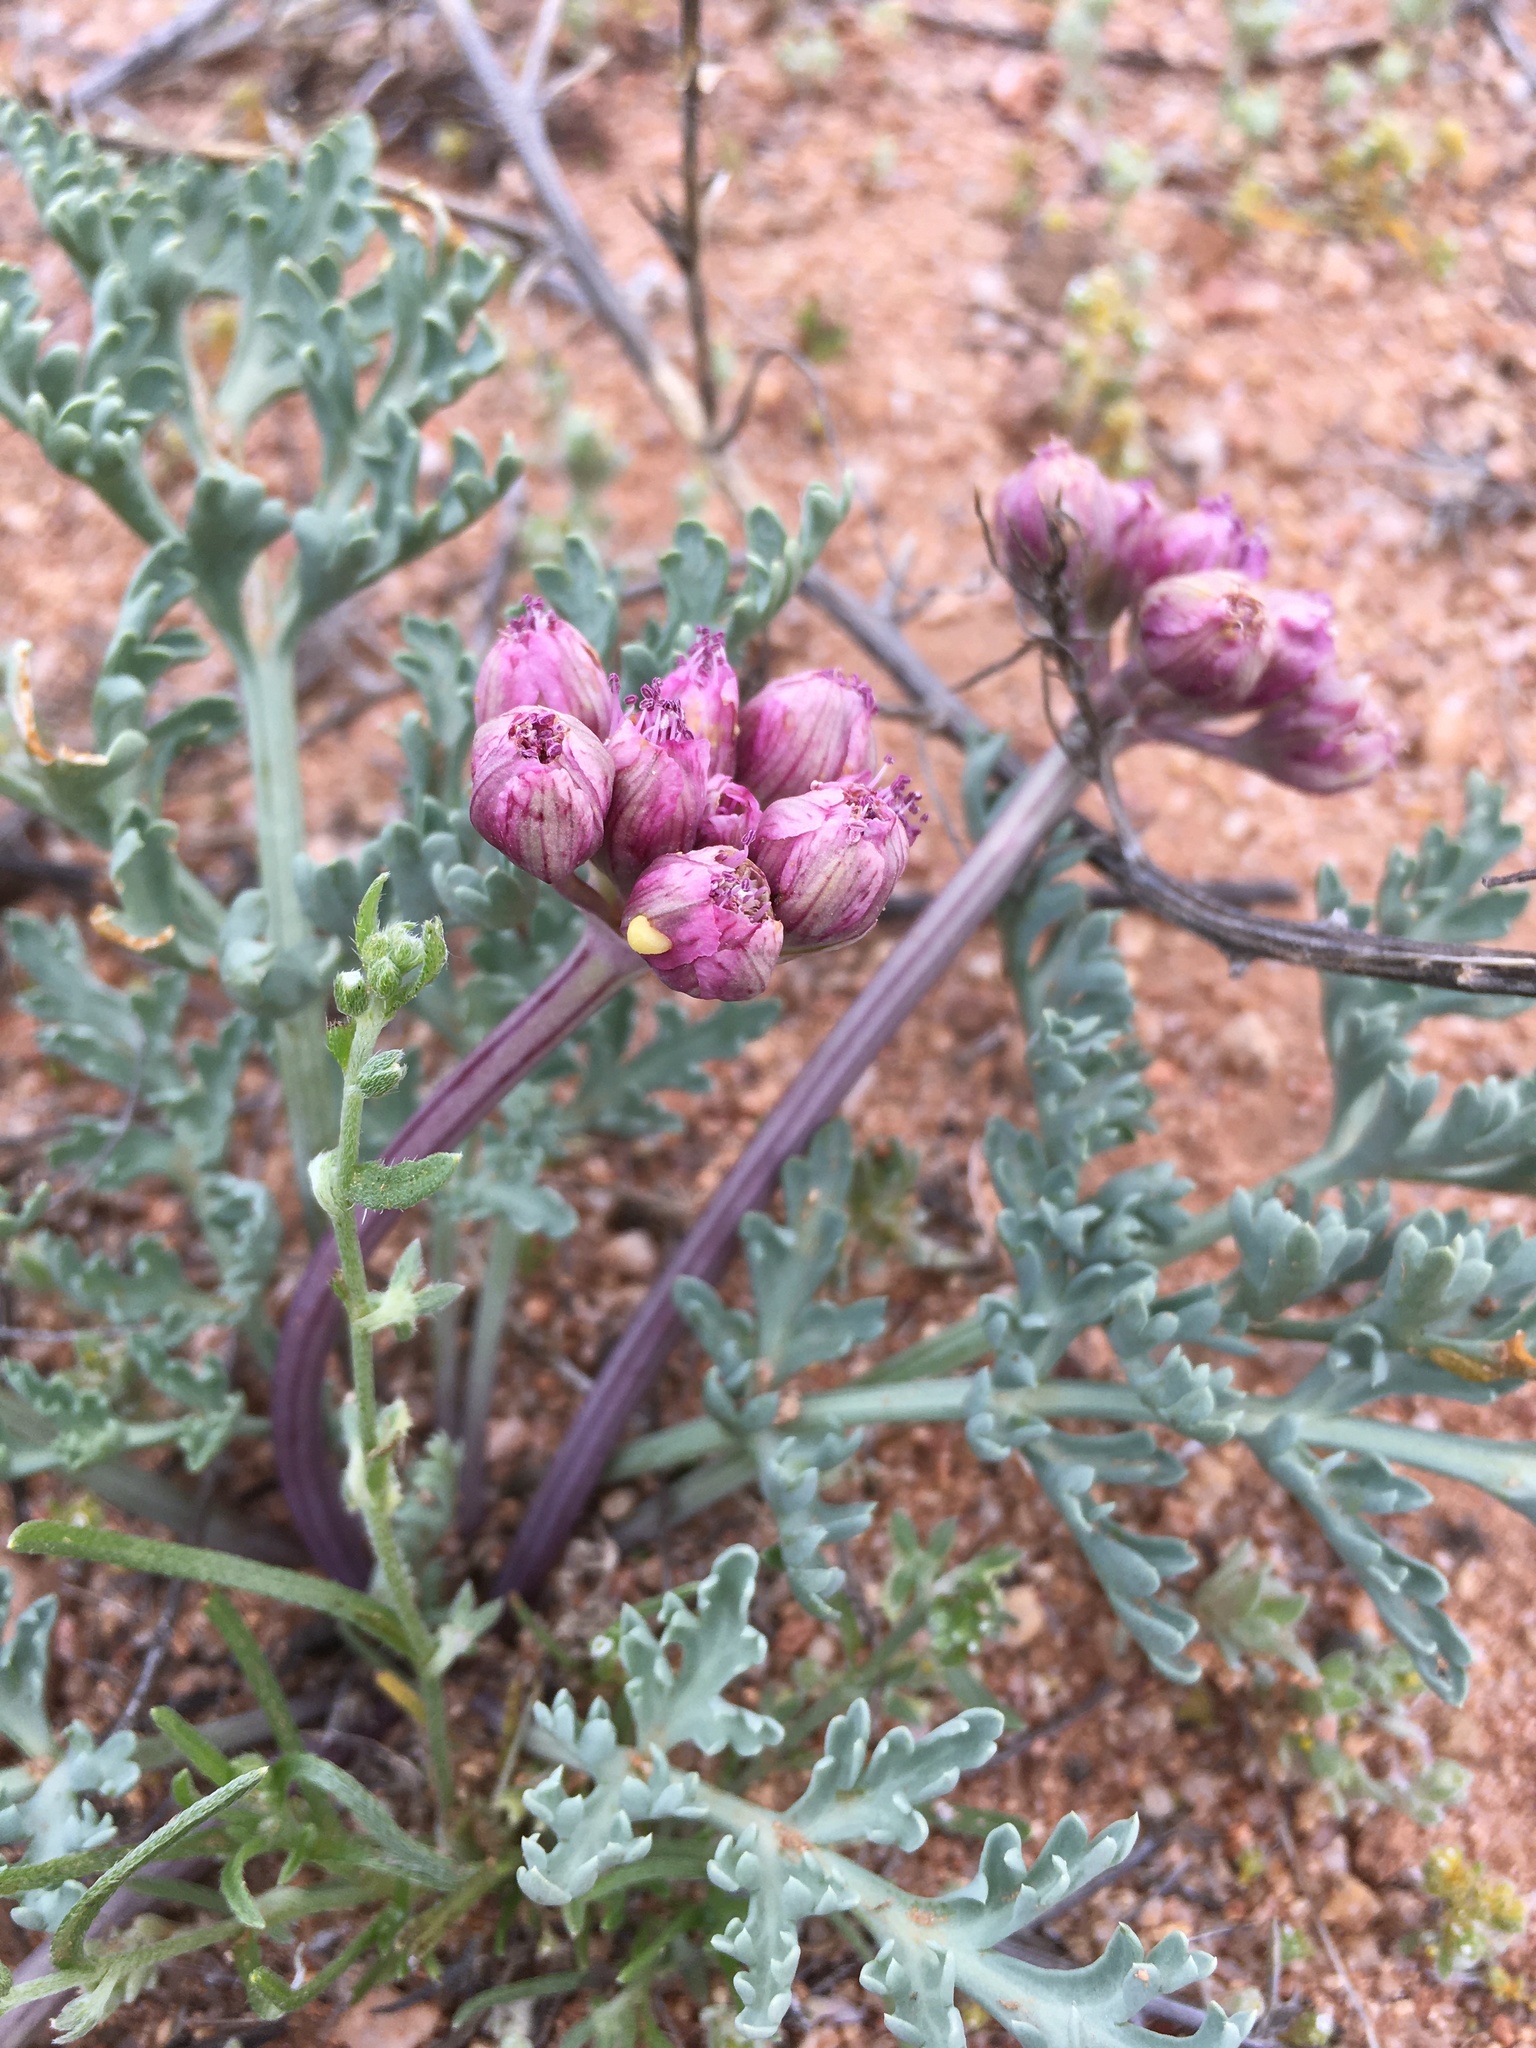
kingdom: Plantae
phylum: Tracheophyta
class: Magnoliopsida
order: Apiales
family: Apiaceae
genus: Vesper
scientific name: Vesper multinervatus
